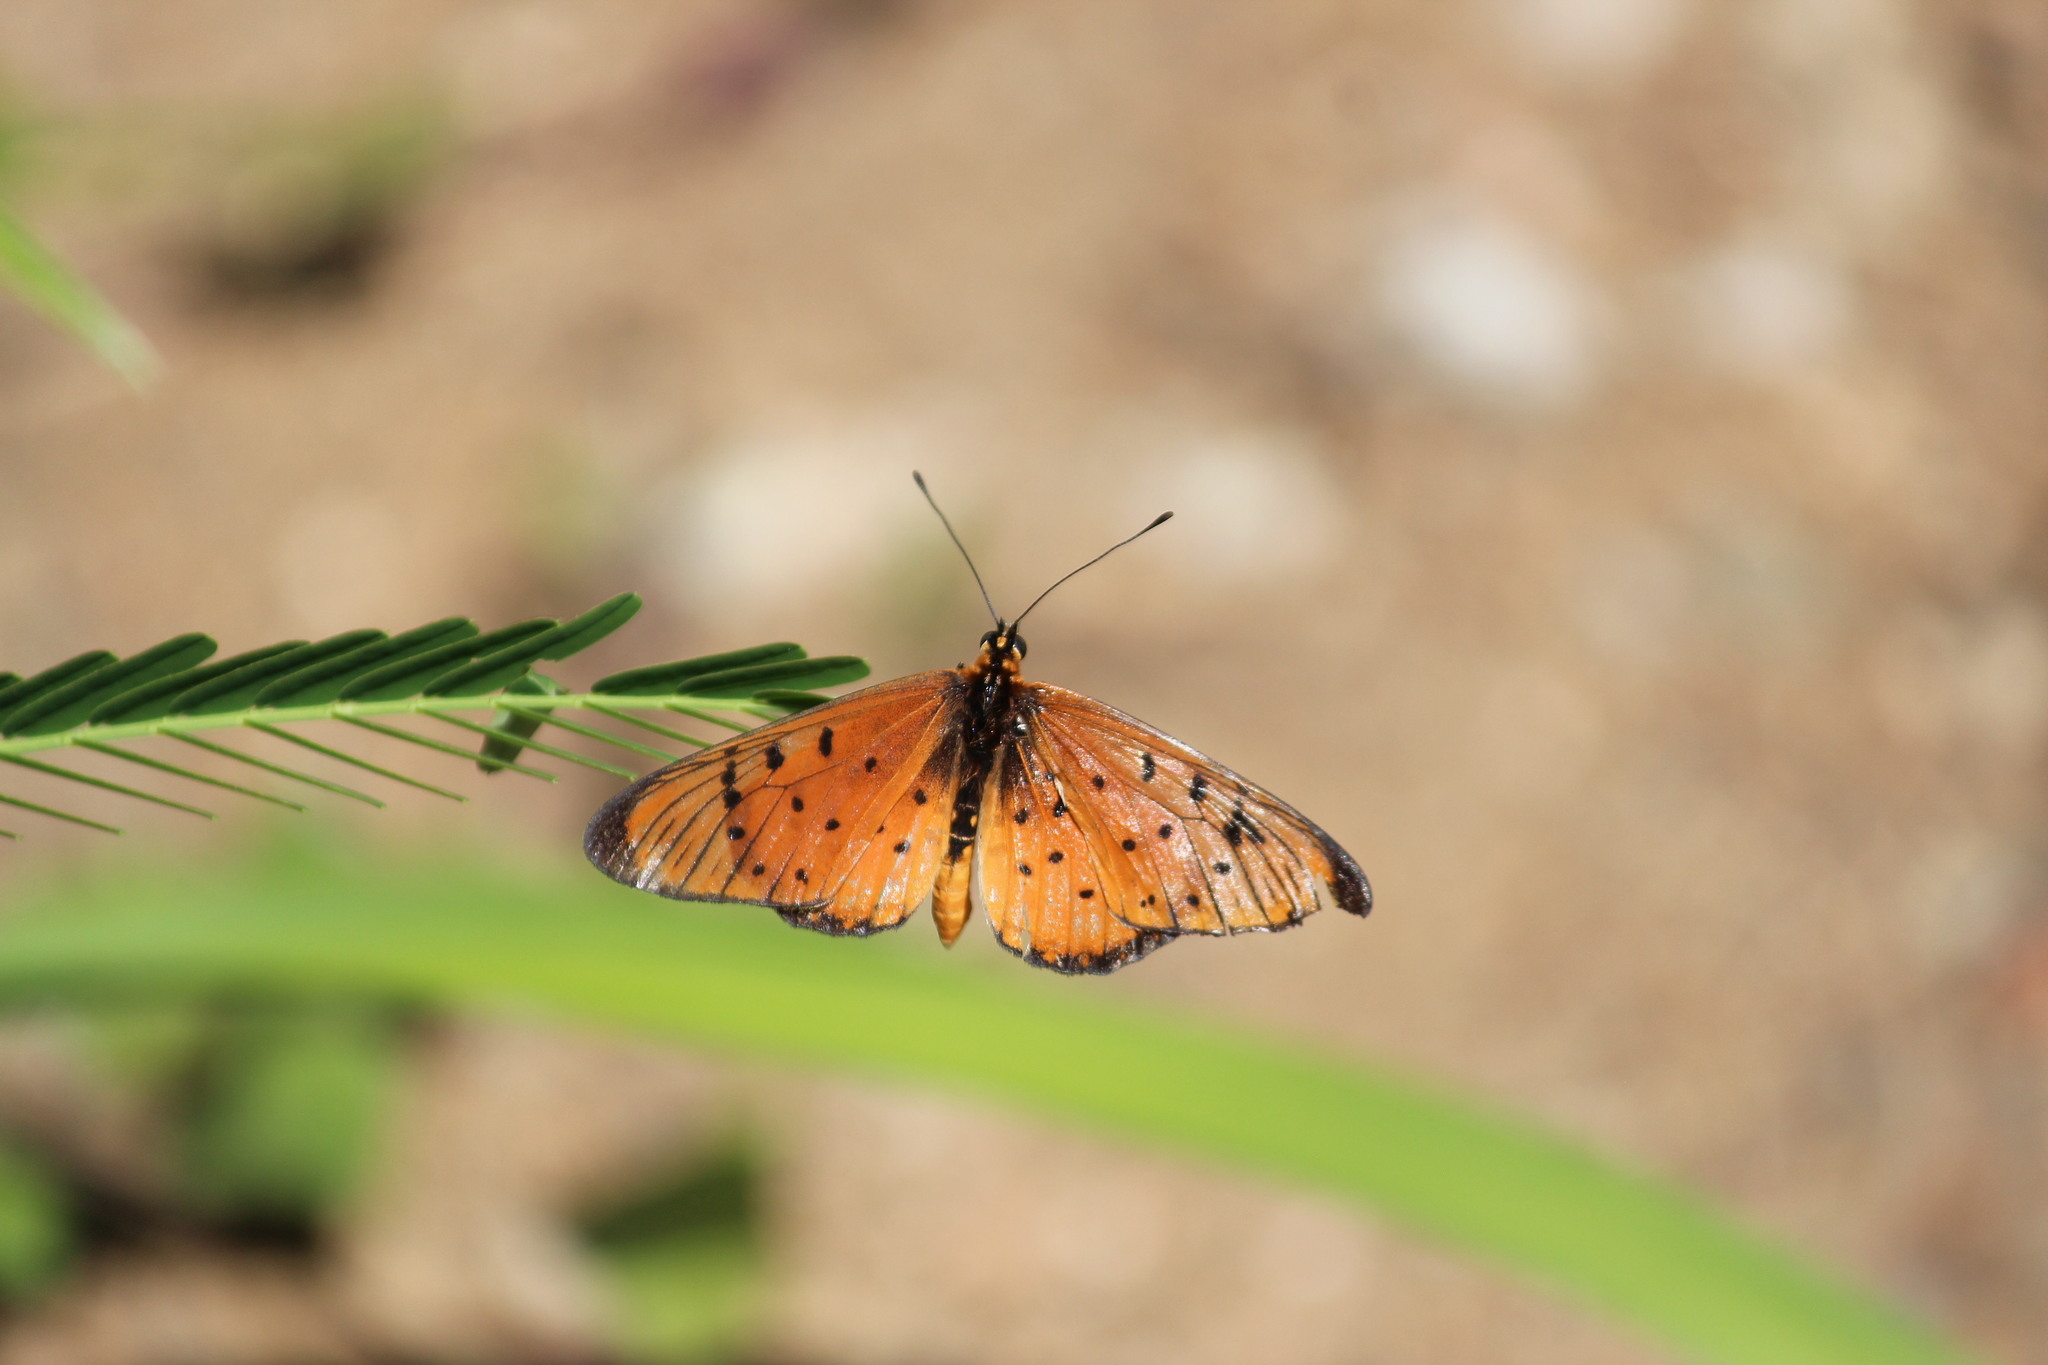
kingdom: Animalia
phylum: Arthropoda
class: Insecta
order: Lepidoptera
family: Nymphalidae
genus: Stephenia
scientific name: Stephenia
